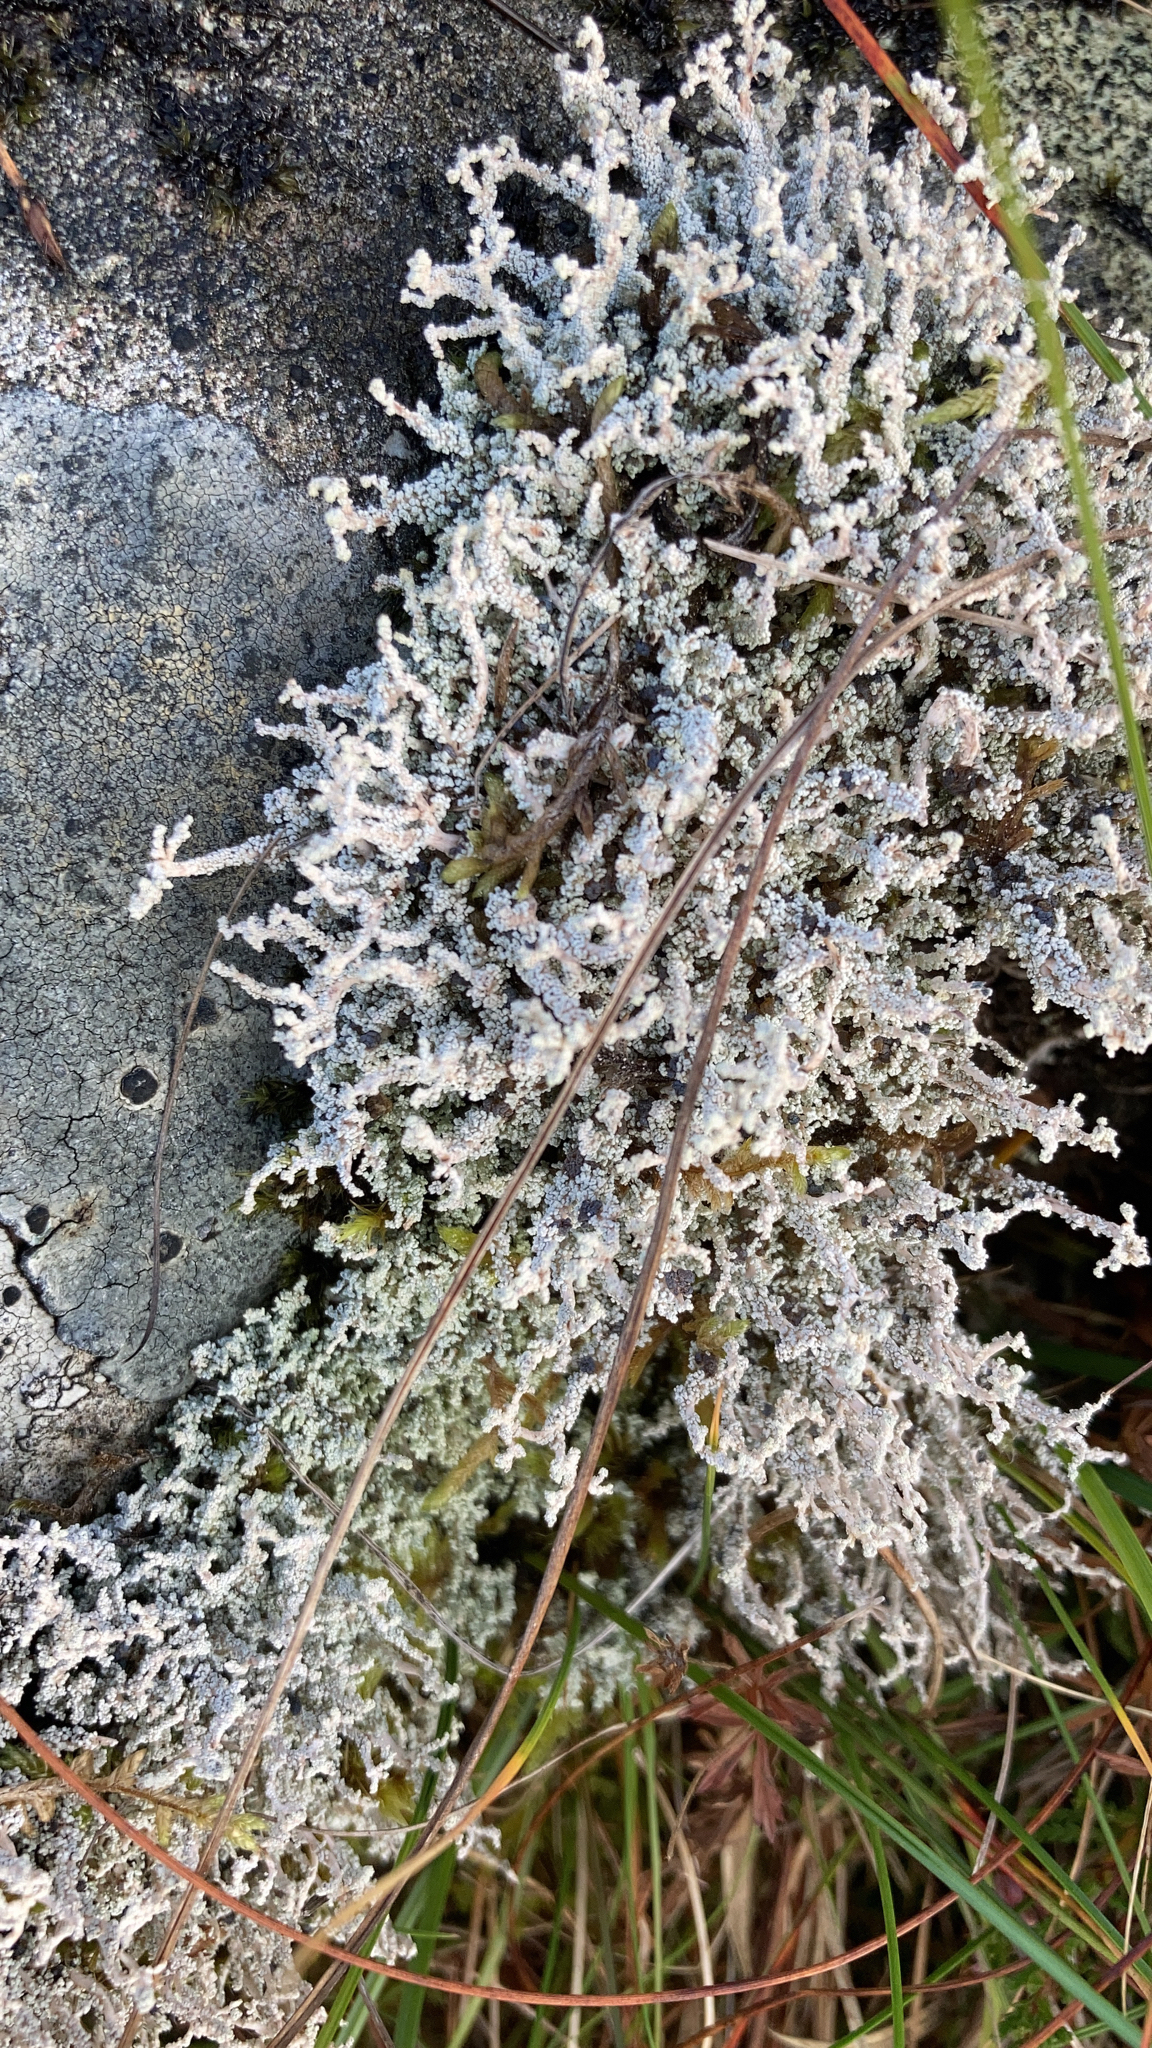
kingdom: Fungi
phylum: Ascomycota
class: Lecanoromycetes
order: Lecanorales
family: Stereocaulaceae
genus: Stereocaulon
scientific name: Stereocaulon vesuvianum
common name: Variegated foam lichen
